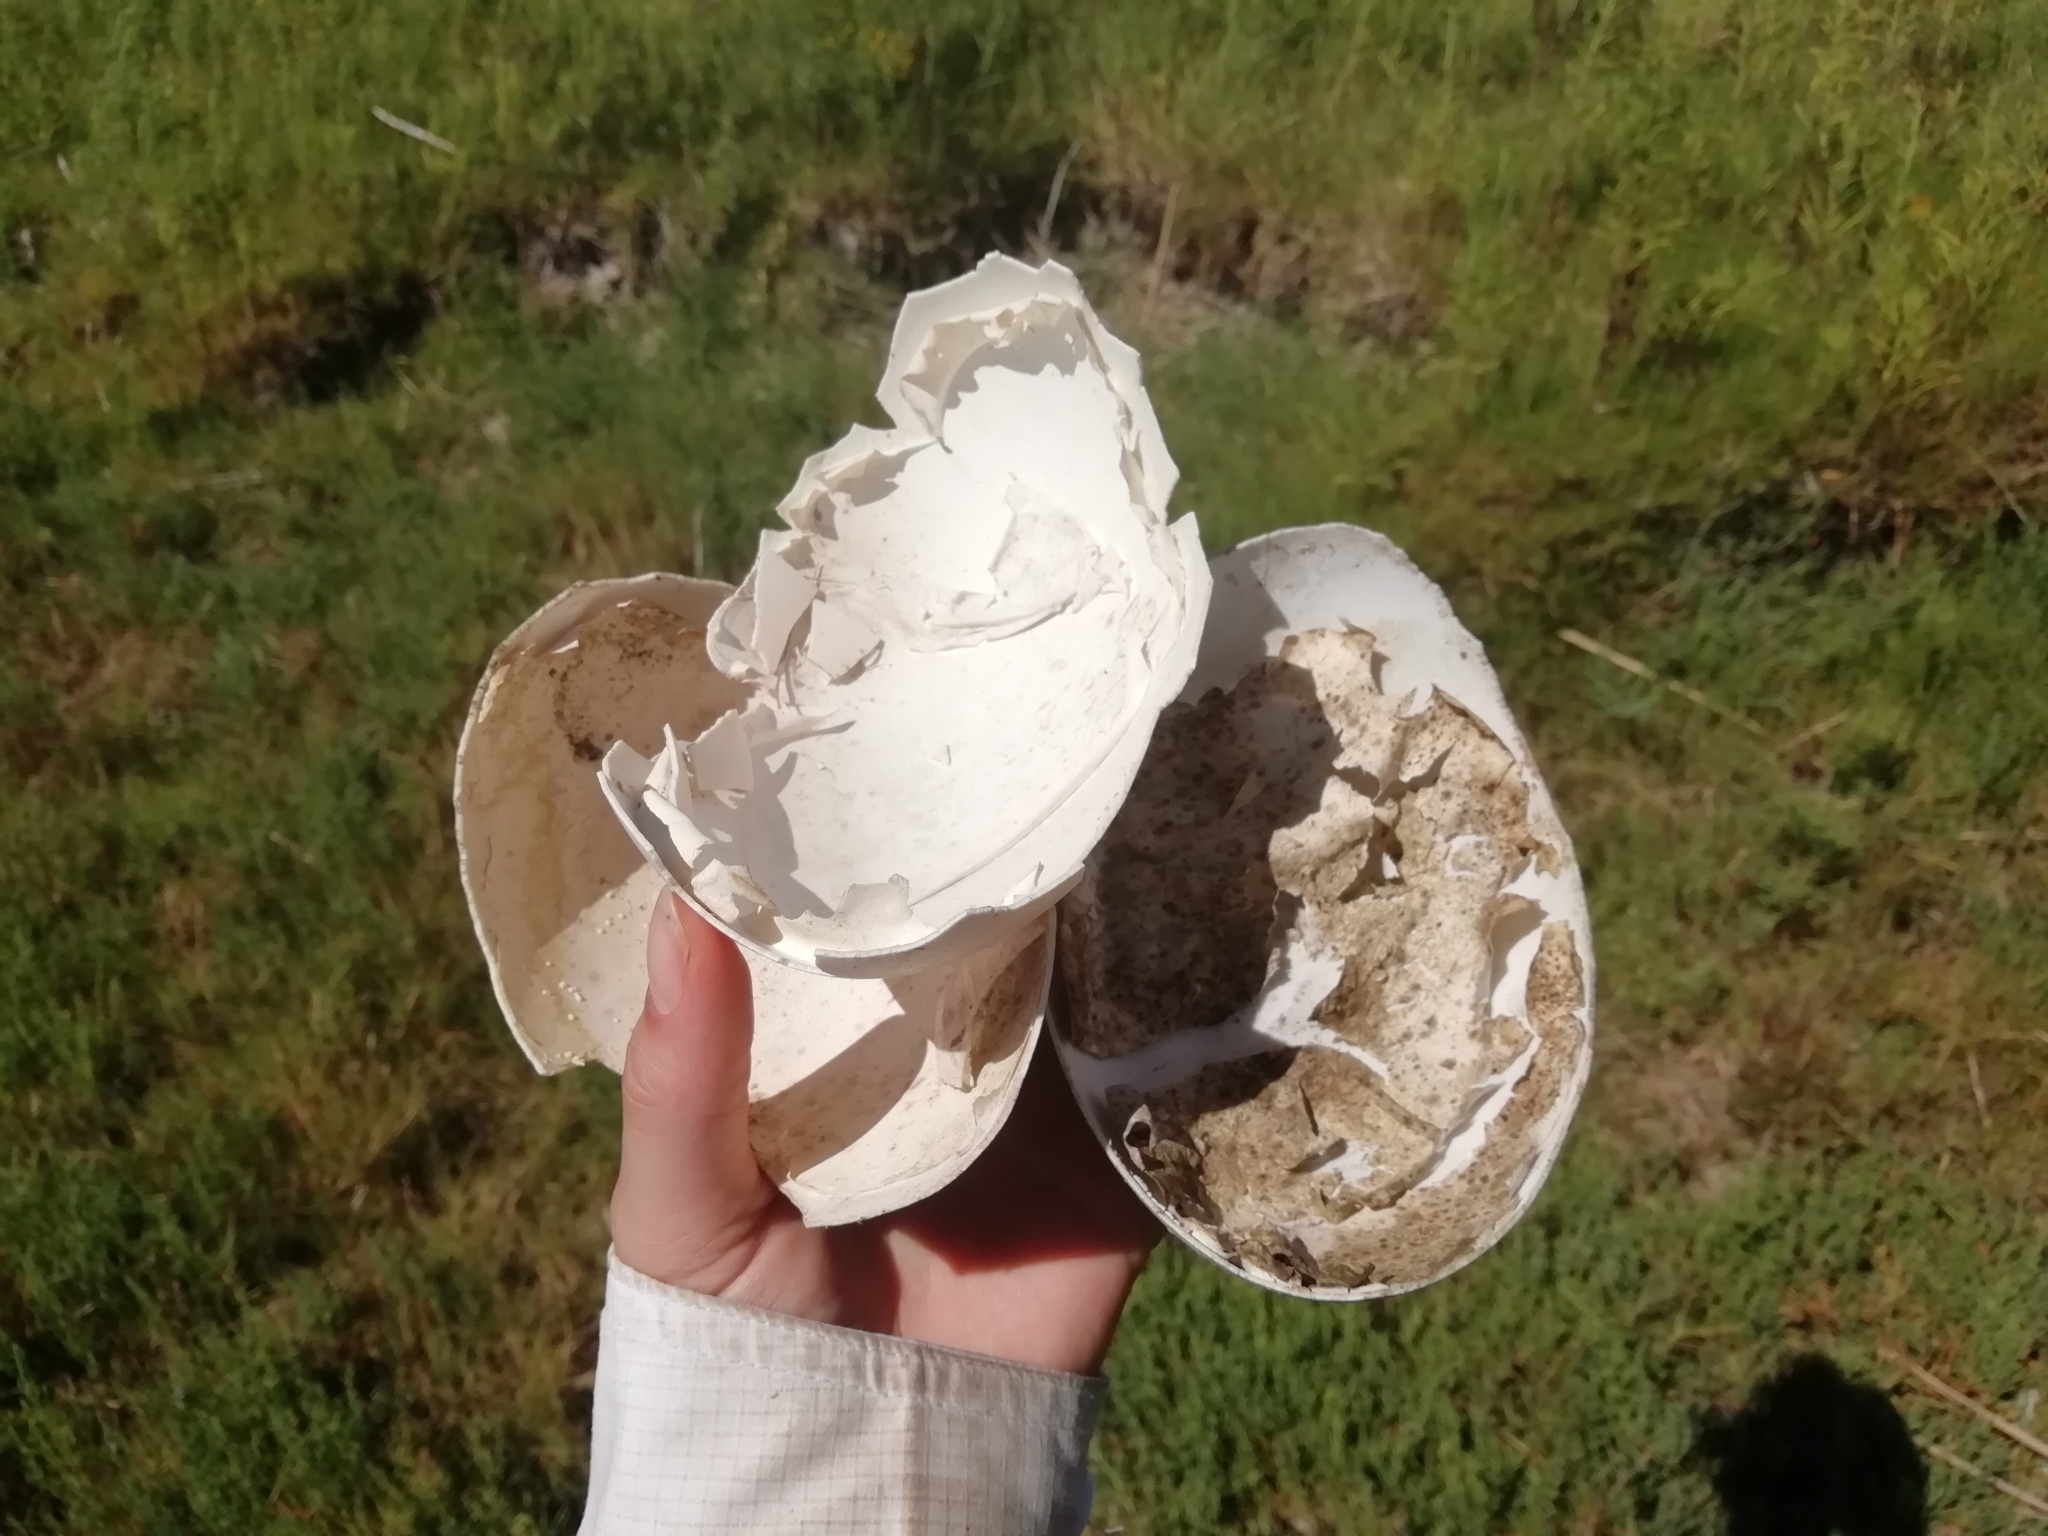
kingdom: Animalia
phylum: Chordata
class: Aves
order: Rheiformes
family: Rheidae
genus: Rhea
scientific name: Rhea americana
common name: Greater rhea
